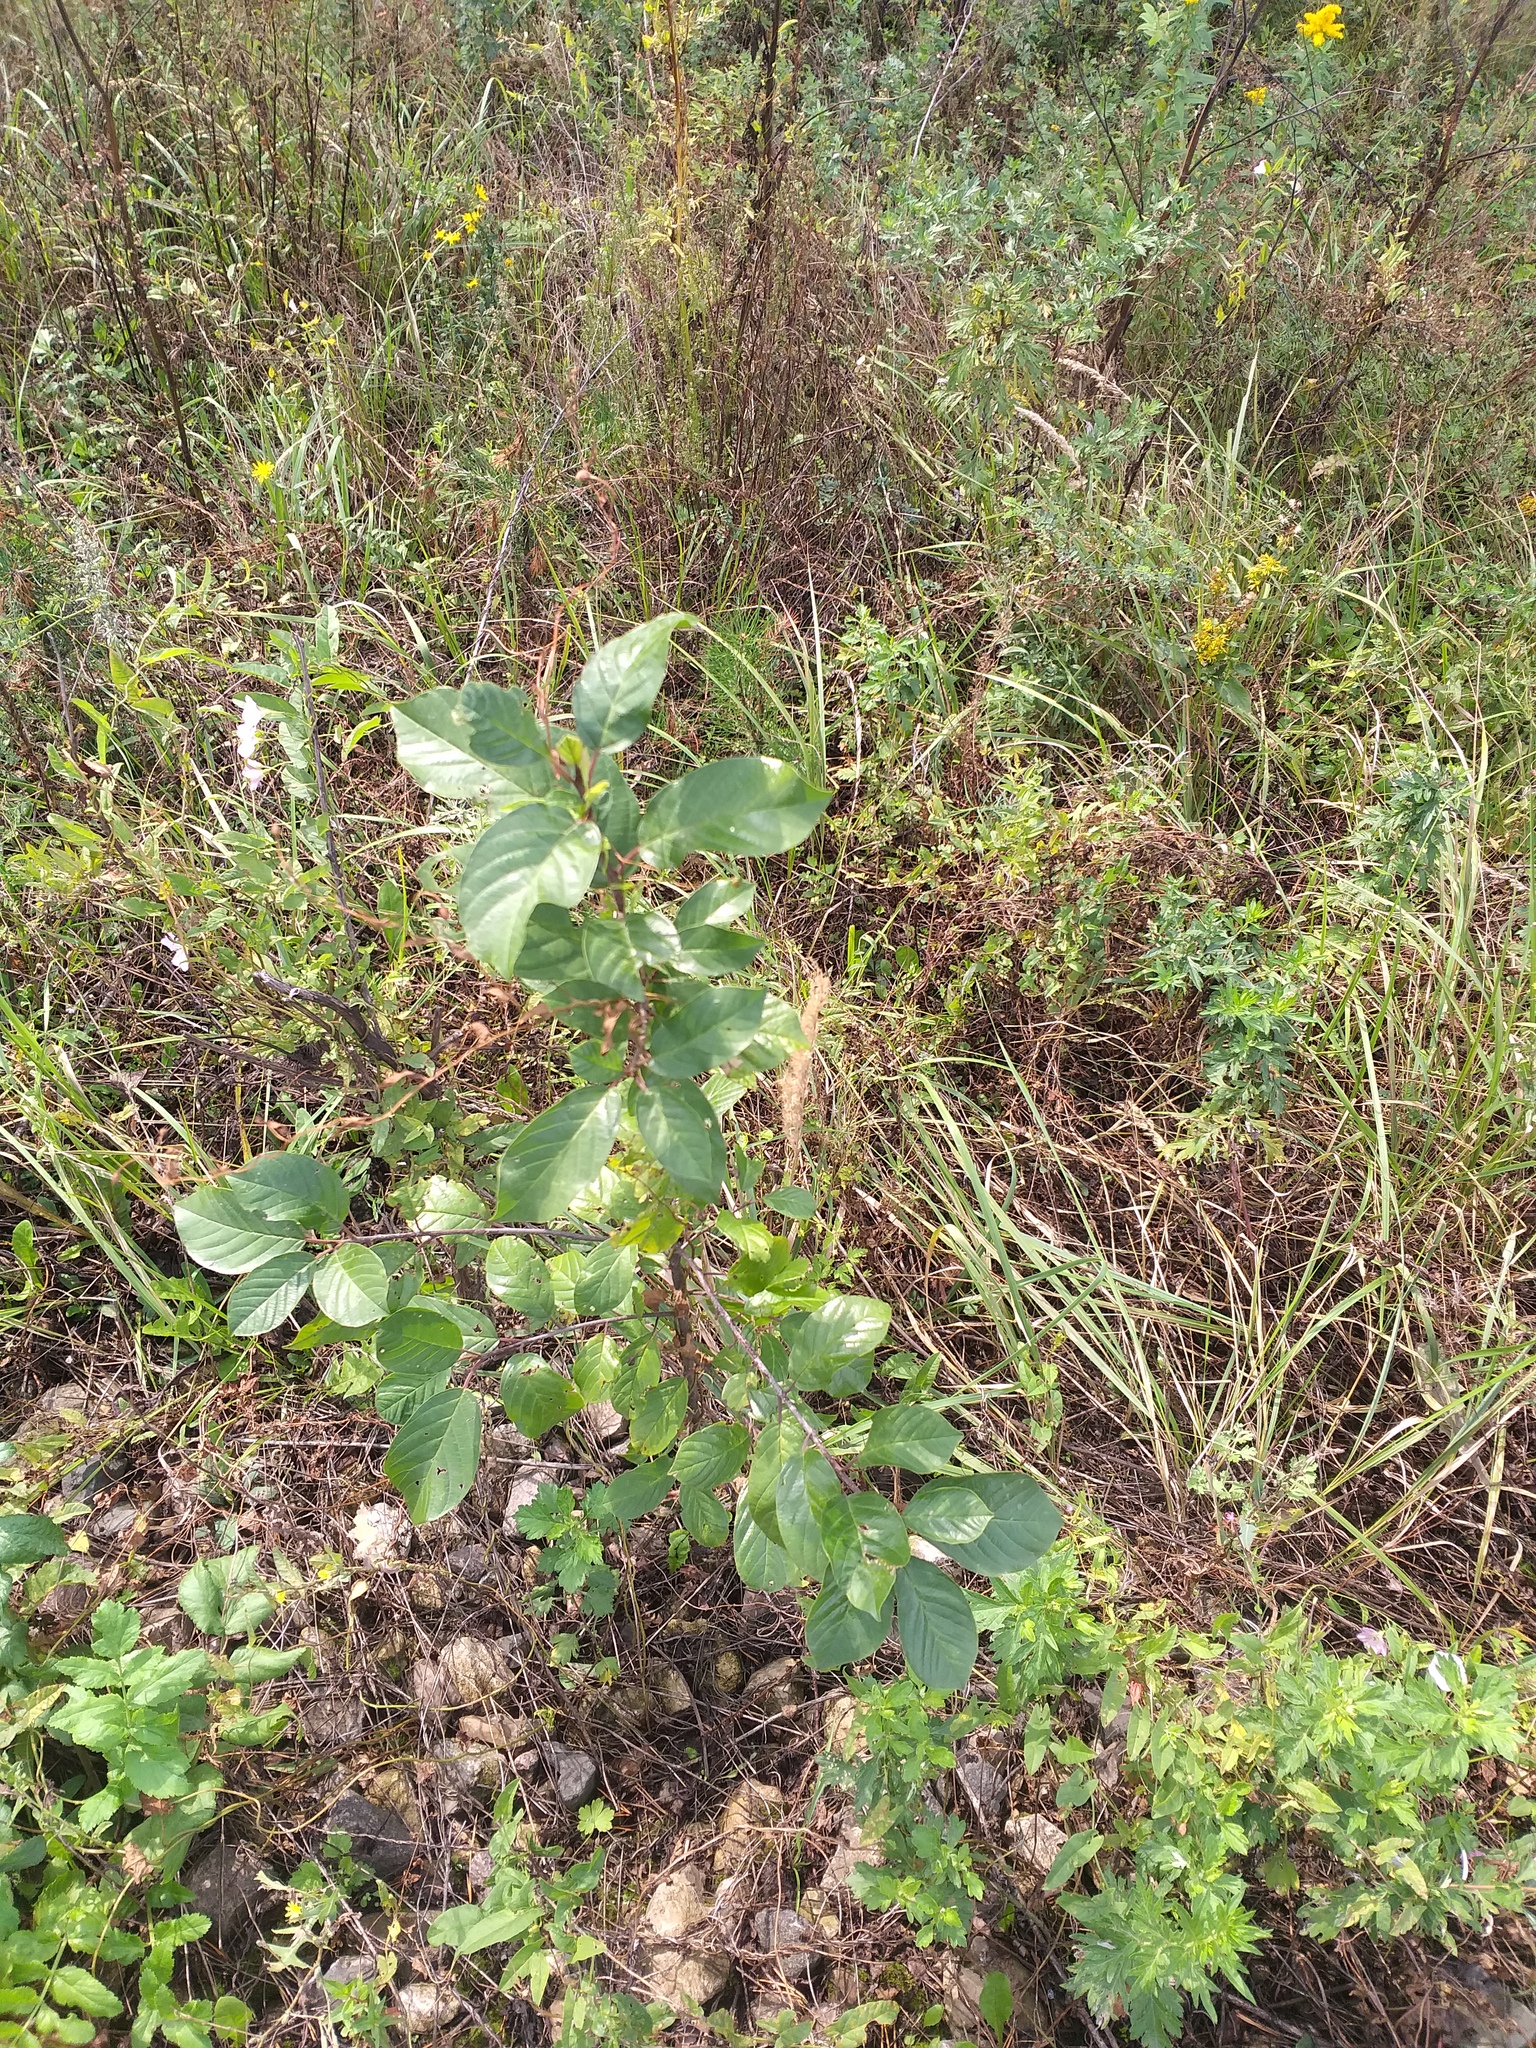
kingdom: Plantae
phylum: Tracheophyta
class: Magnoliopsida
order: Rosales
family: Rhamnaceae
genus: Frangula
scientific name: Frangula alnus
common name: Alder buckthorn
